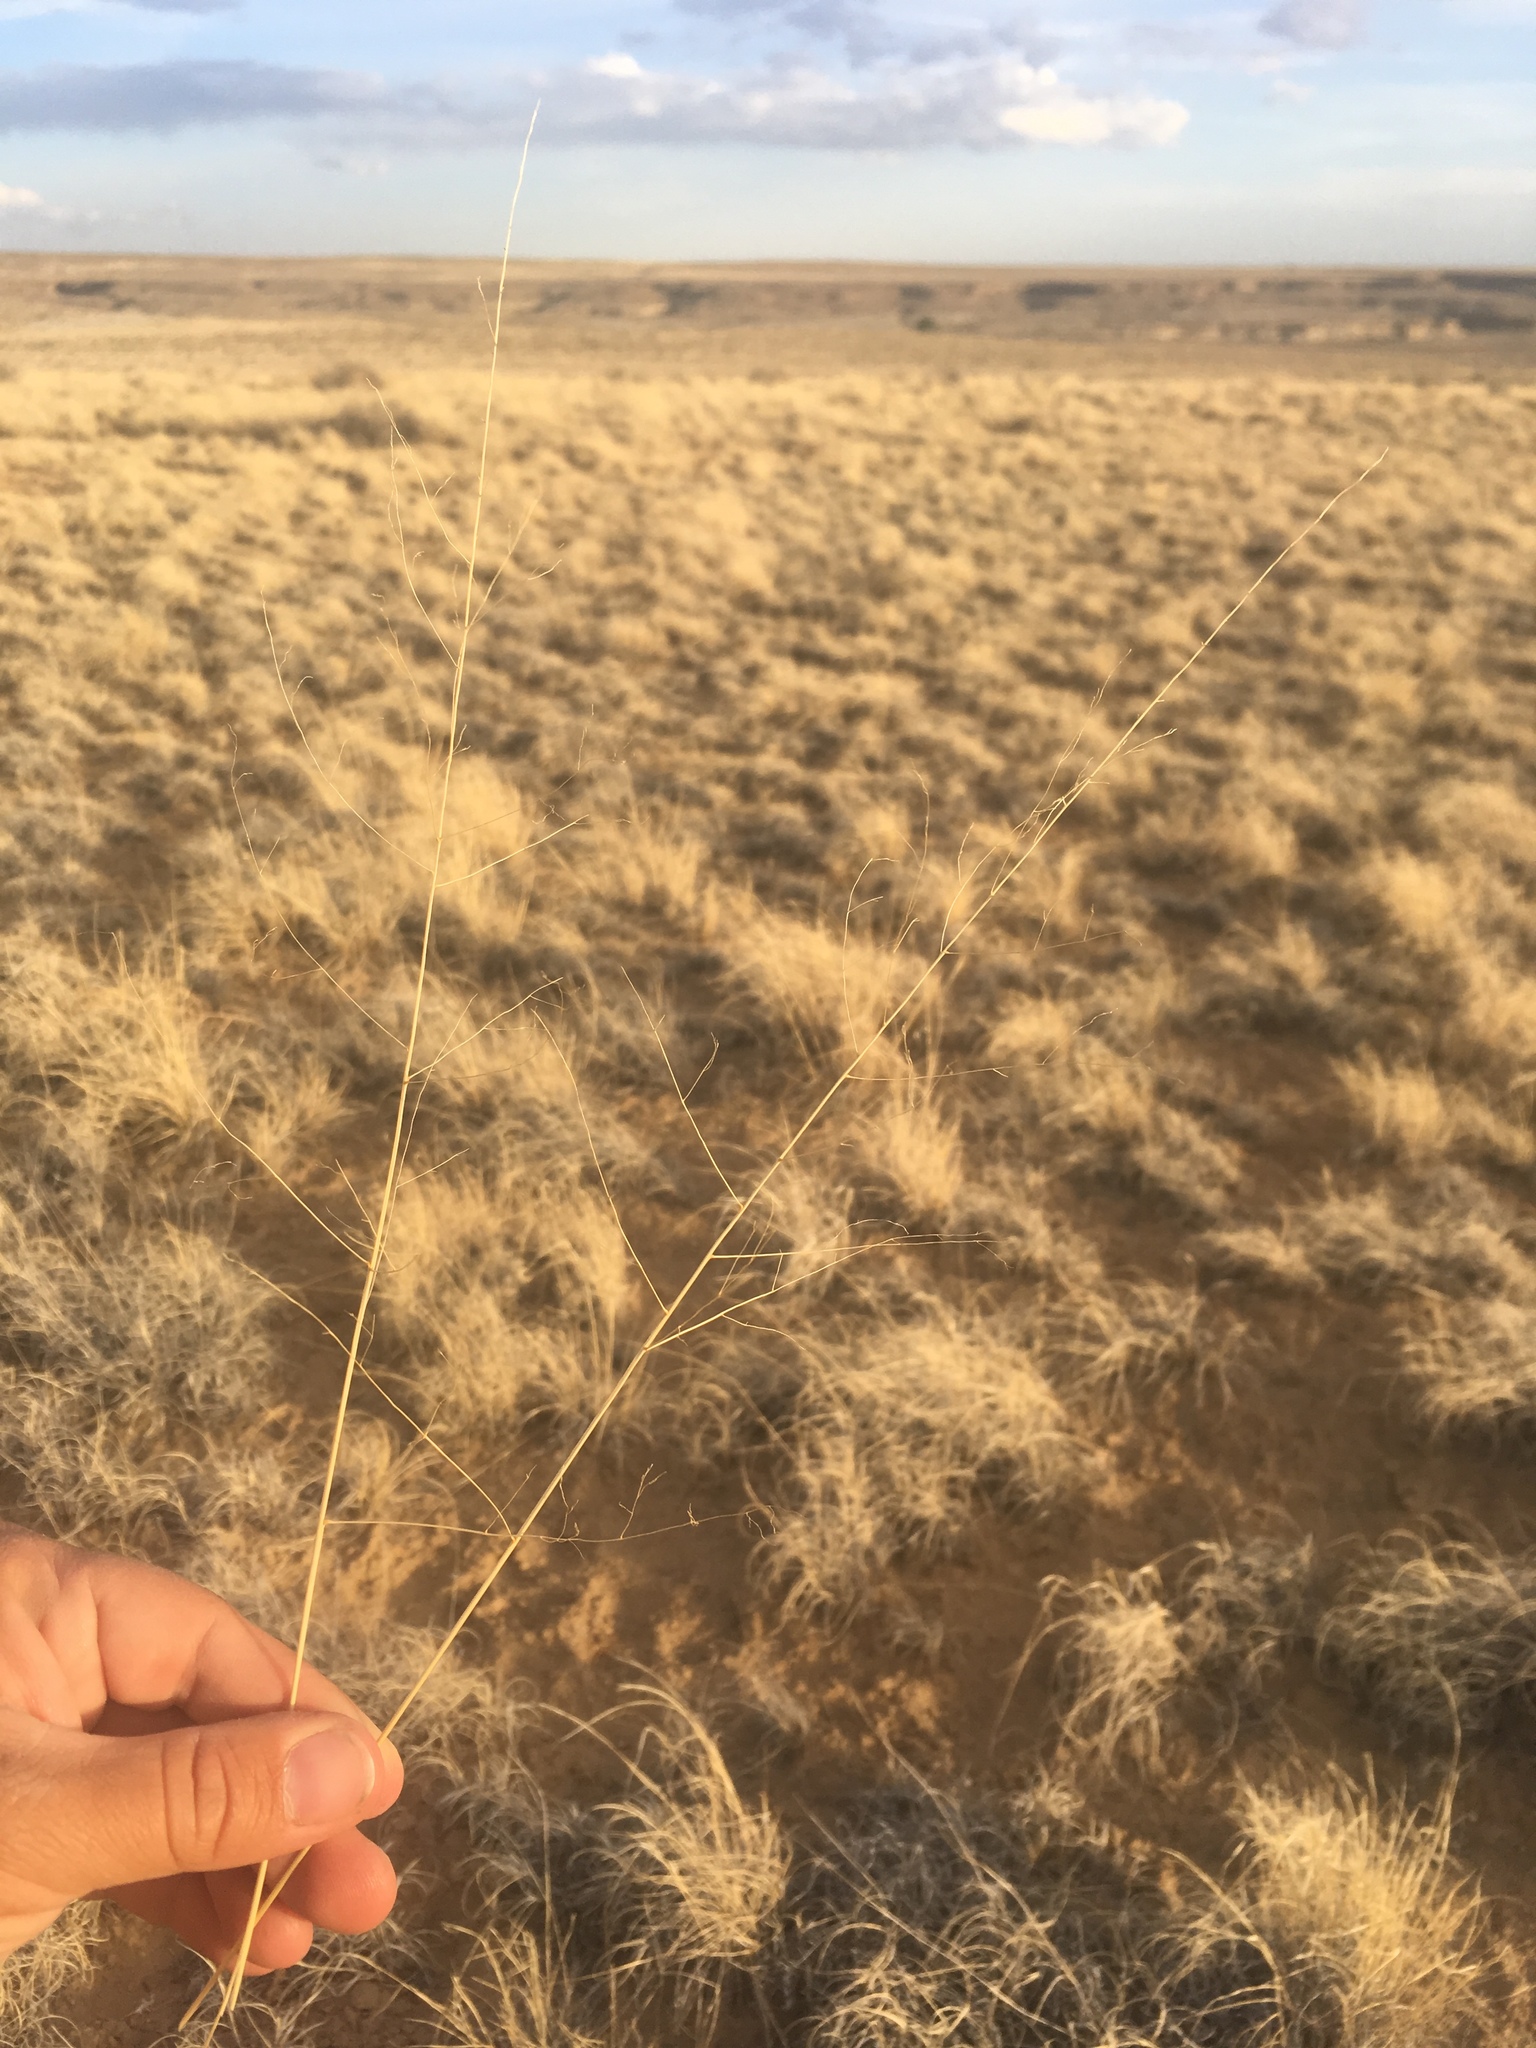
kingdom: Plantae
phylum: Tracheophyta
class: Liliopsida
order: Poales
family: Poaceae
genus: Sporobolus
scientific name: Sporobolus airoides
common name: Alkali sacaton
